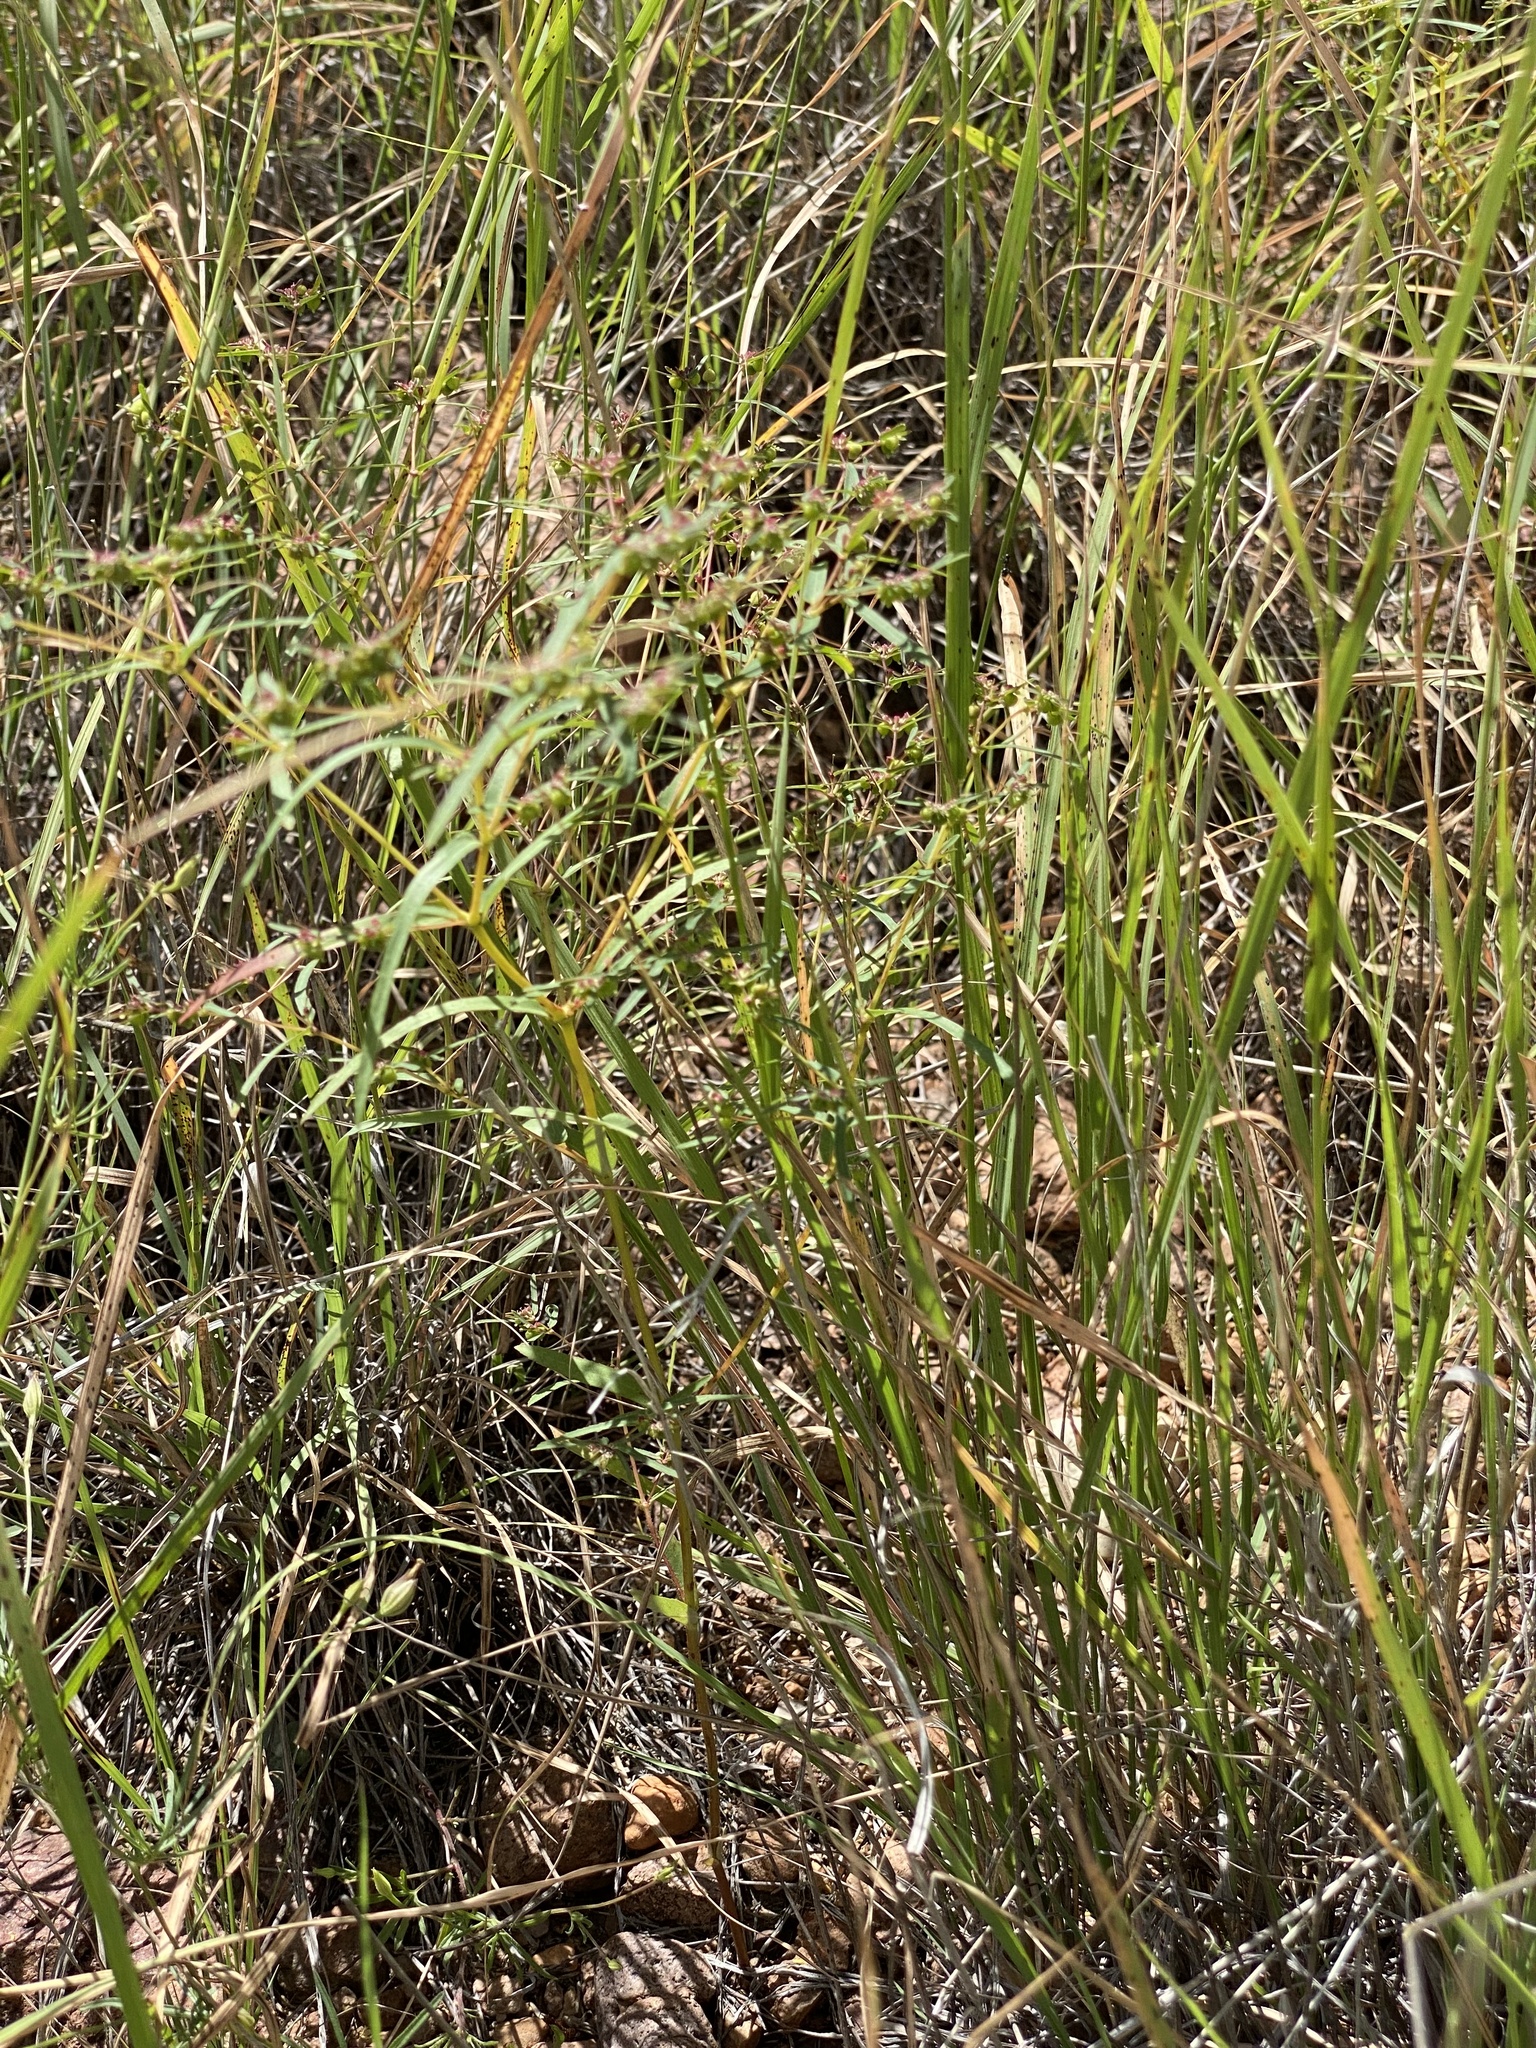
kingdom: Plantae
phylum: Tracheophyta
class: Magnoliopsida
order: Malpighiales
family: Euphorbiaceae
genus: Euphorbia
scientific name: Euphorbia hyssopifolia
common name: Hyssopleaf sandmat
